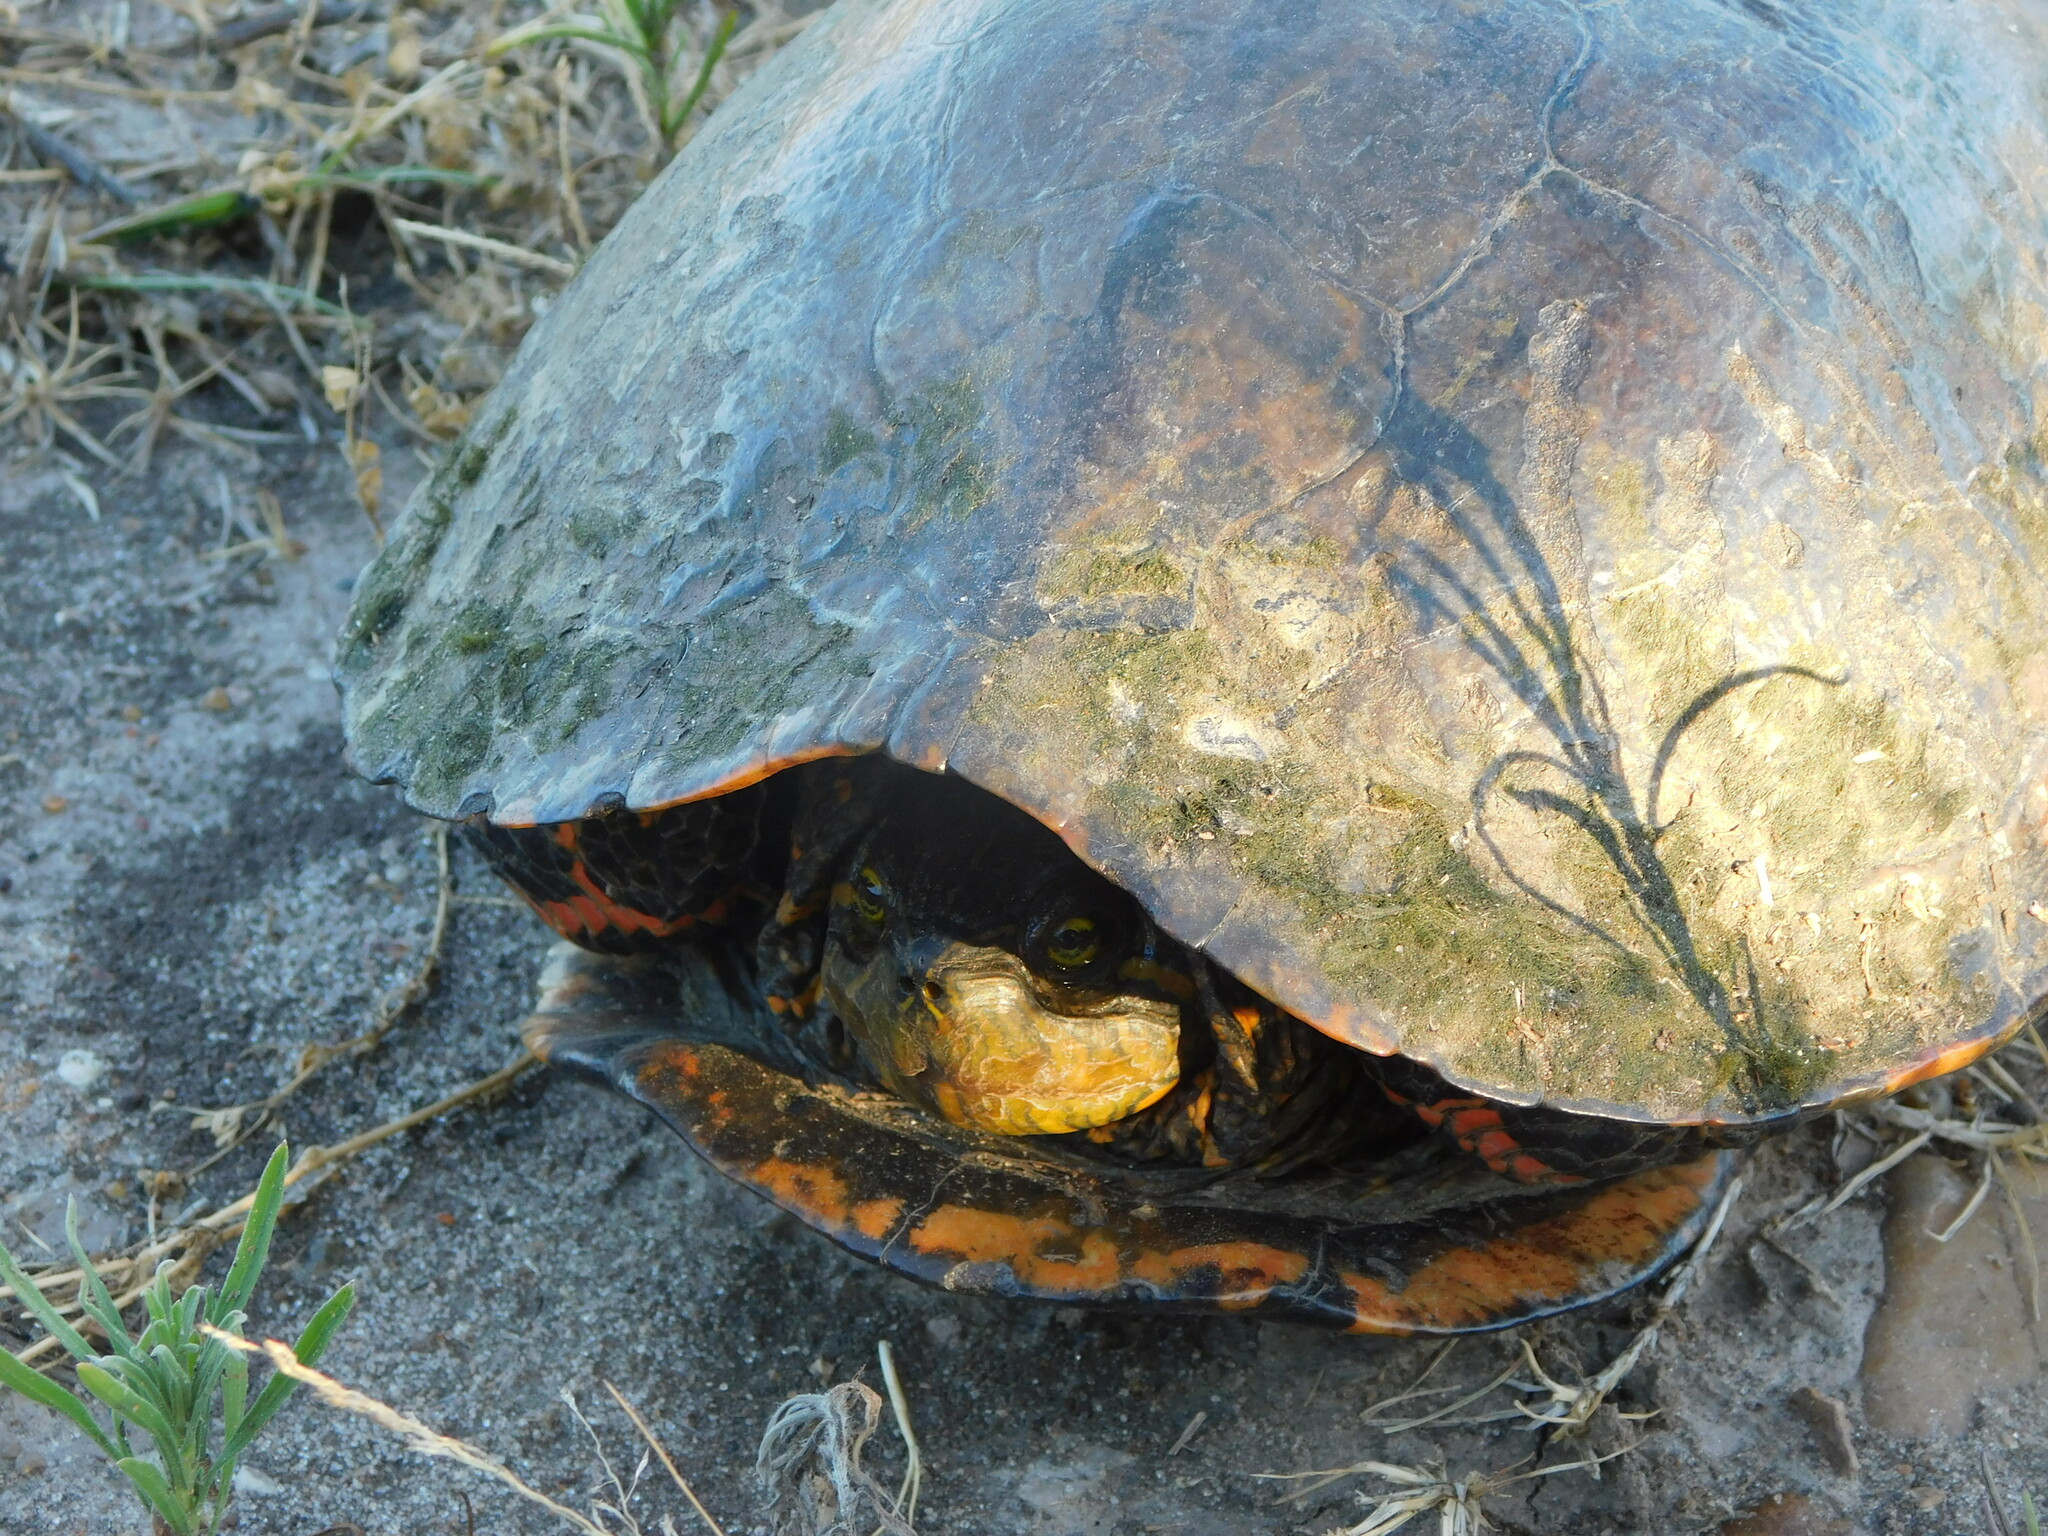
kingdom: Animalia
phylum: Chordata
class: Testudines
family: Emydidae
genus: Trachemys
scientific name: Trachemys dorbigni
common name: Black-bellied slider
